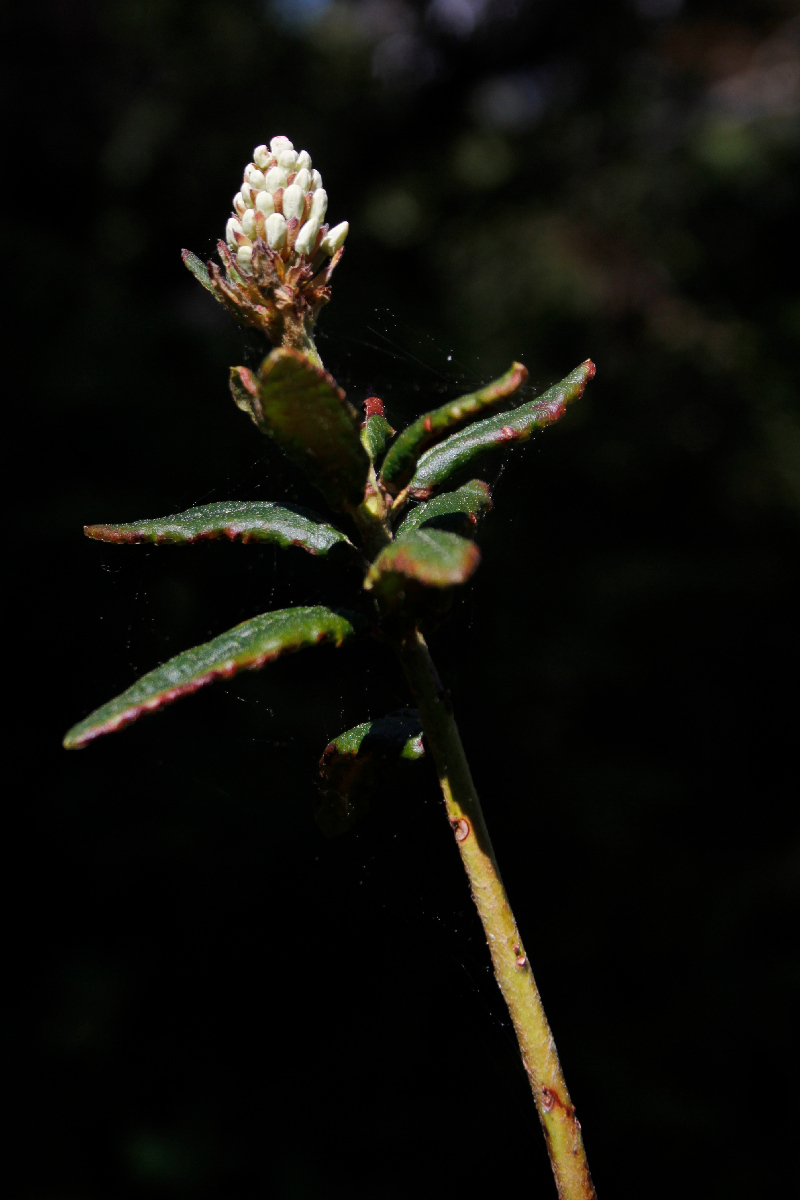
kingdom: Plantae
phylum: Tracheophyta
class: Magnoliopsida
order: Ericales
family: Ericaceae
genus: Rhododendron
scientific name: Rhododendron groenlandicum
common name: Bog labrador tea
